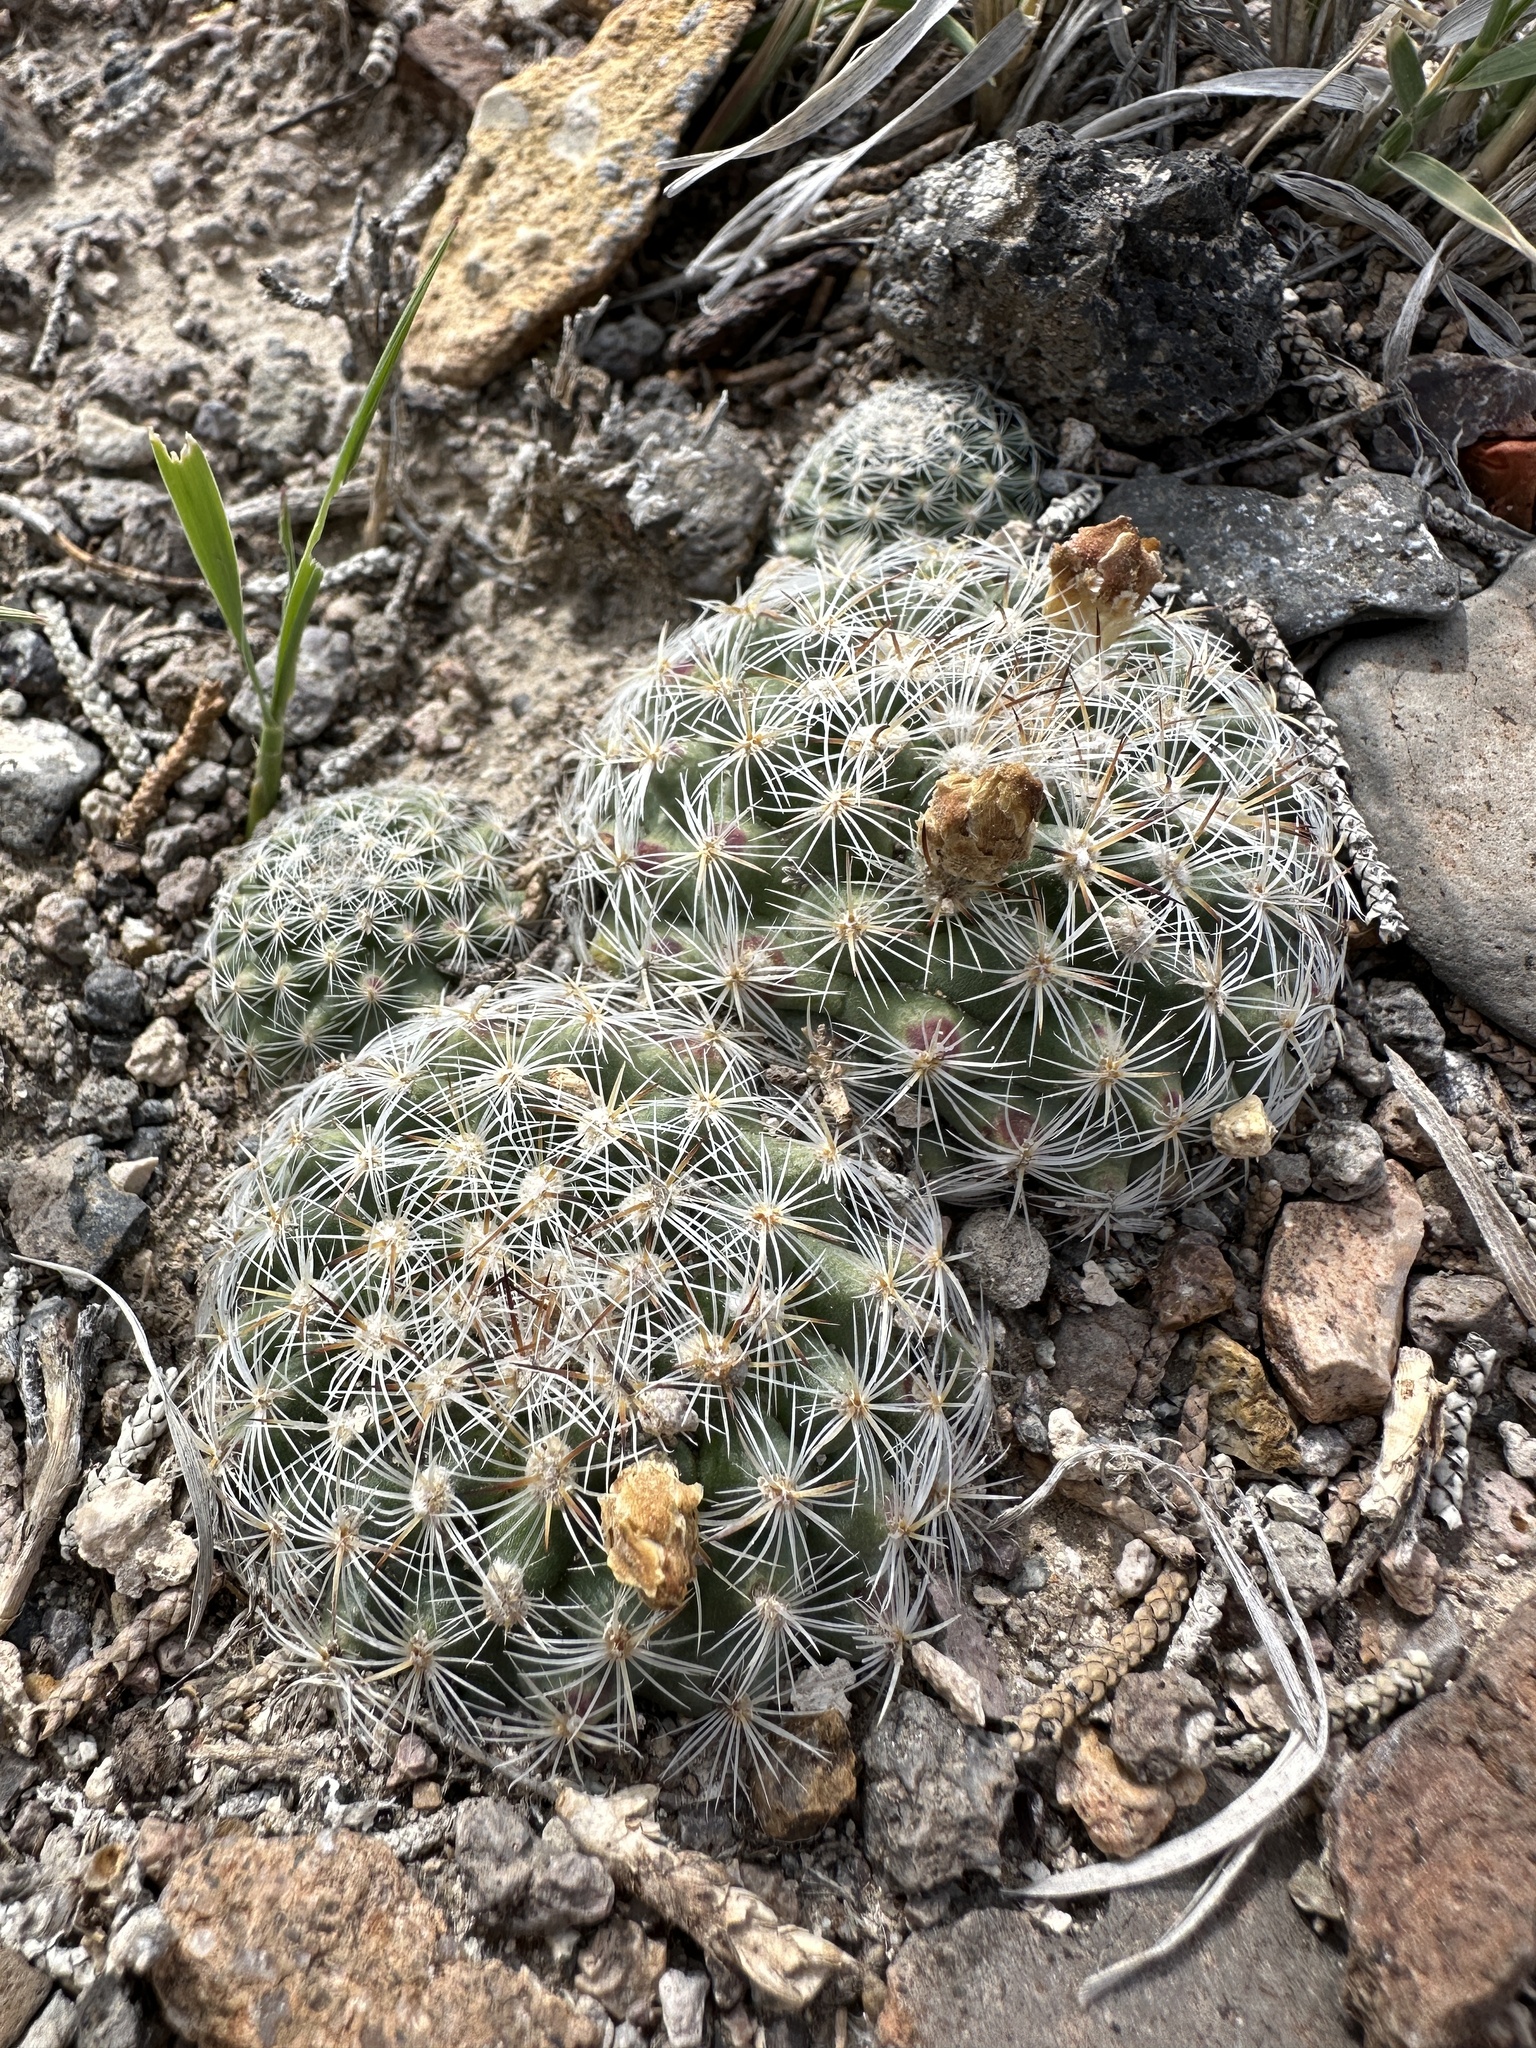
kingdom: Plantae
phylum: Tracheophyta
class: Magnoliopsida
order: Caryophyllales
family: Cactaceae
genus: Pediocactus
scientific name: Pediocactus simpsonii
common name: Simpson's hedgehog cactus
